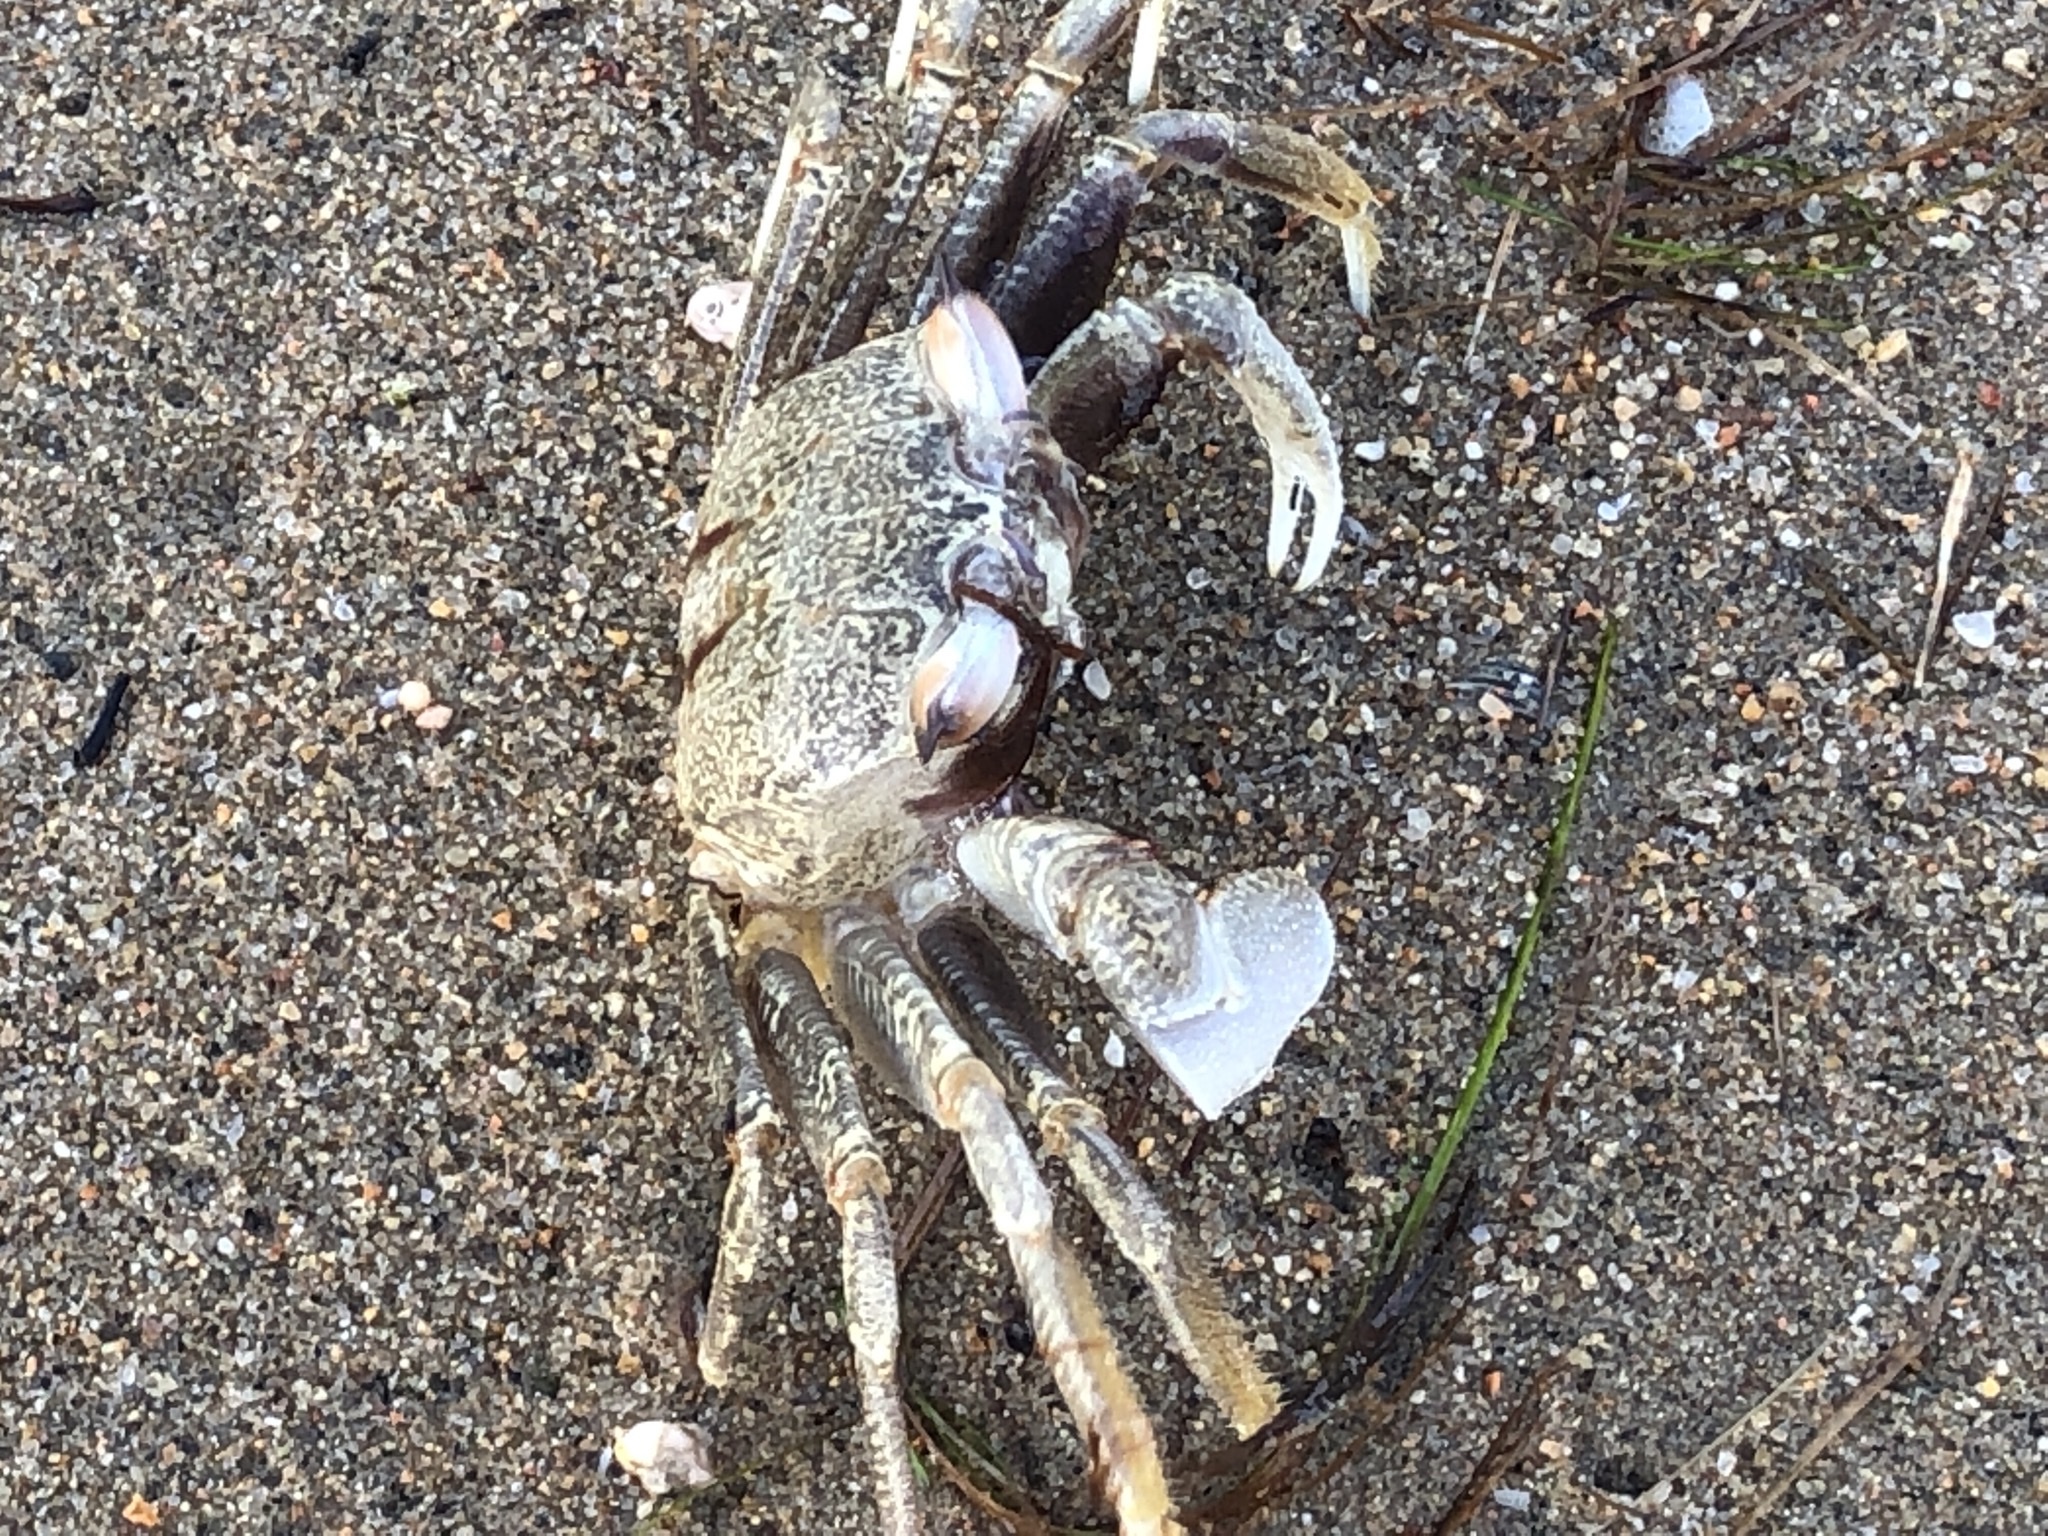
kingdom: Animalia
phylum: Arthropoda
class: Malacostraca
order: Decapoda
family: Ocypodidae
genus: Ocypode
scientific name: Ocypode ceratophthalmus
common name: Indo-pacific ghost crab
